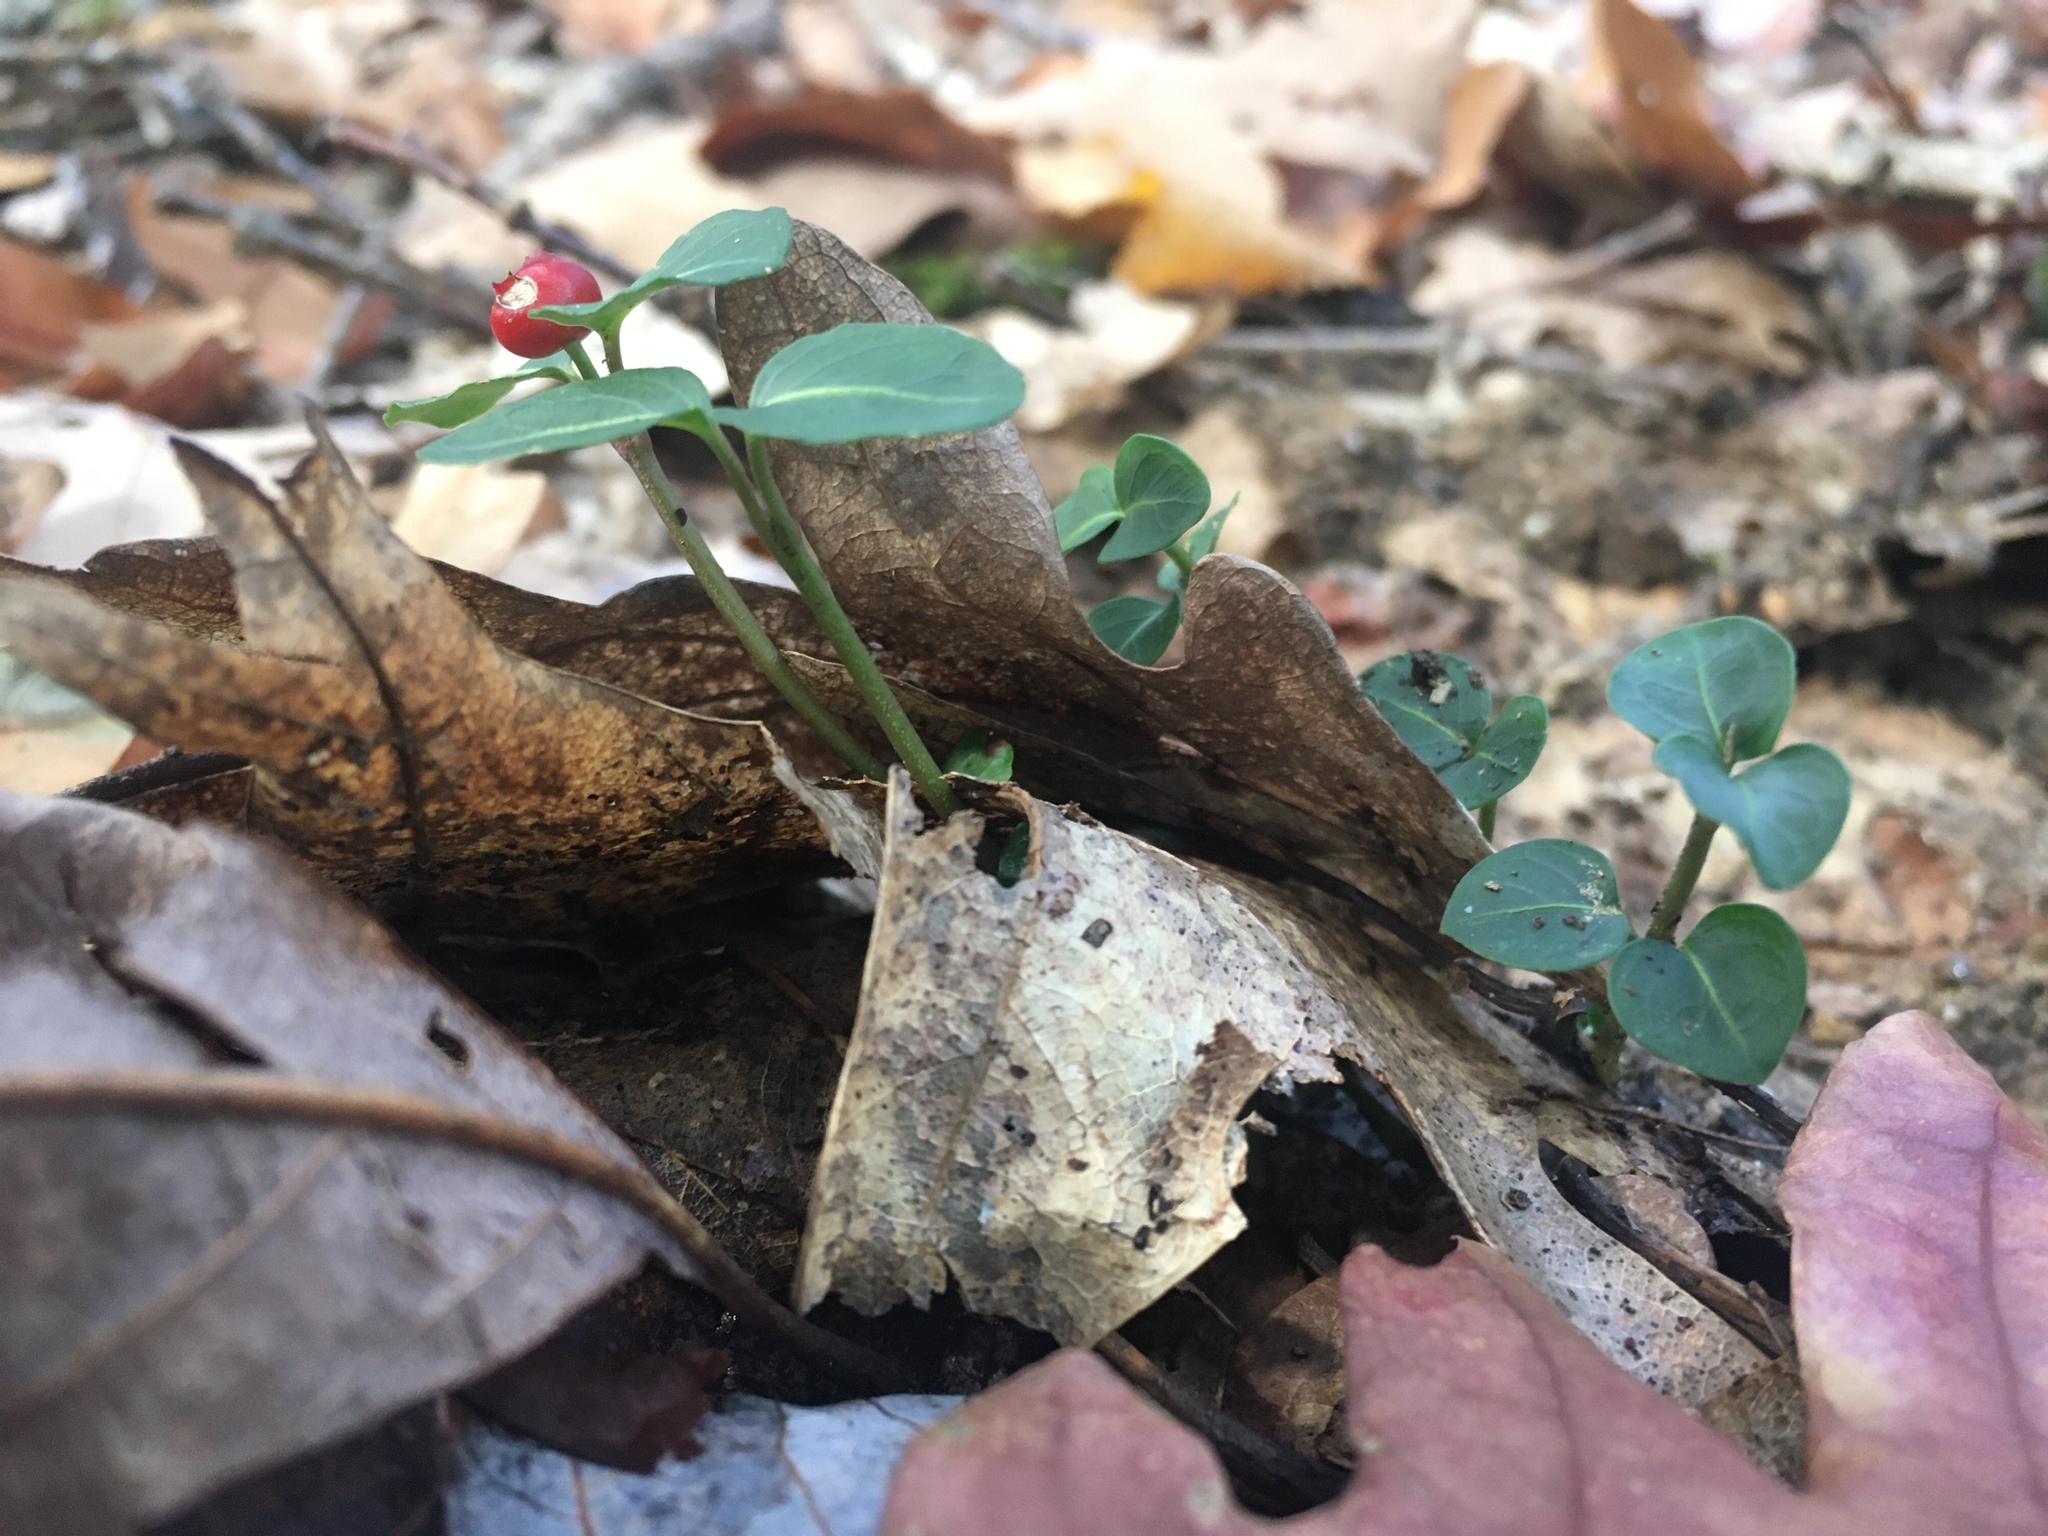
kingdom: Plantae
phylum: Tracheophyta
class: Magnoliopsida
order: Gentianales
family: Rubiaceae
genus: Mitchella
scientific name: Mitchella repens
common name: Partridge-berry
